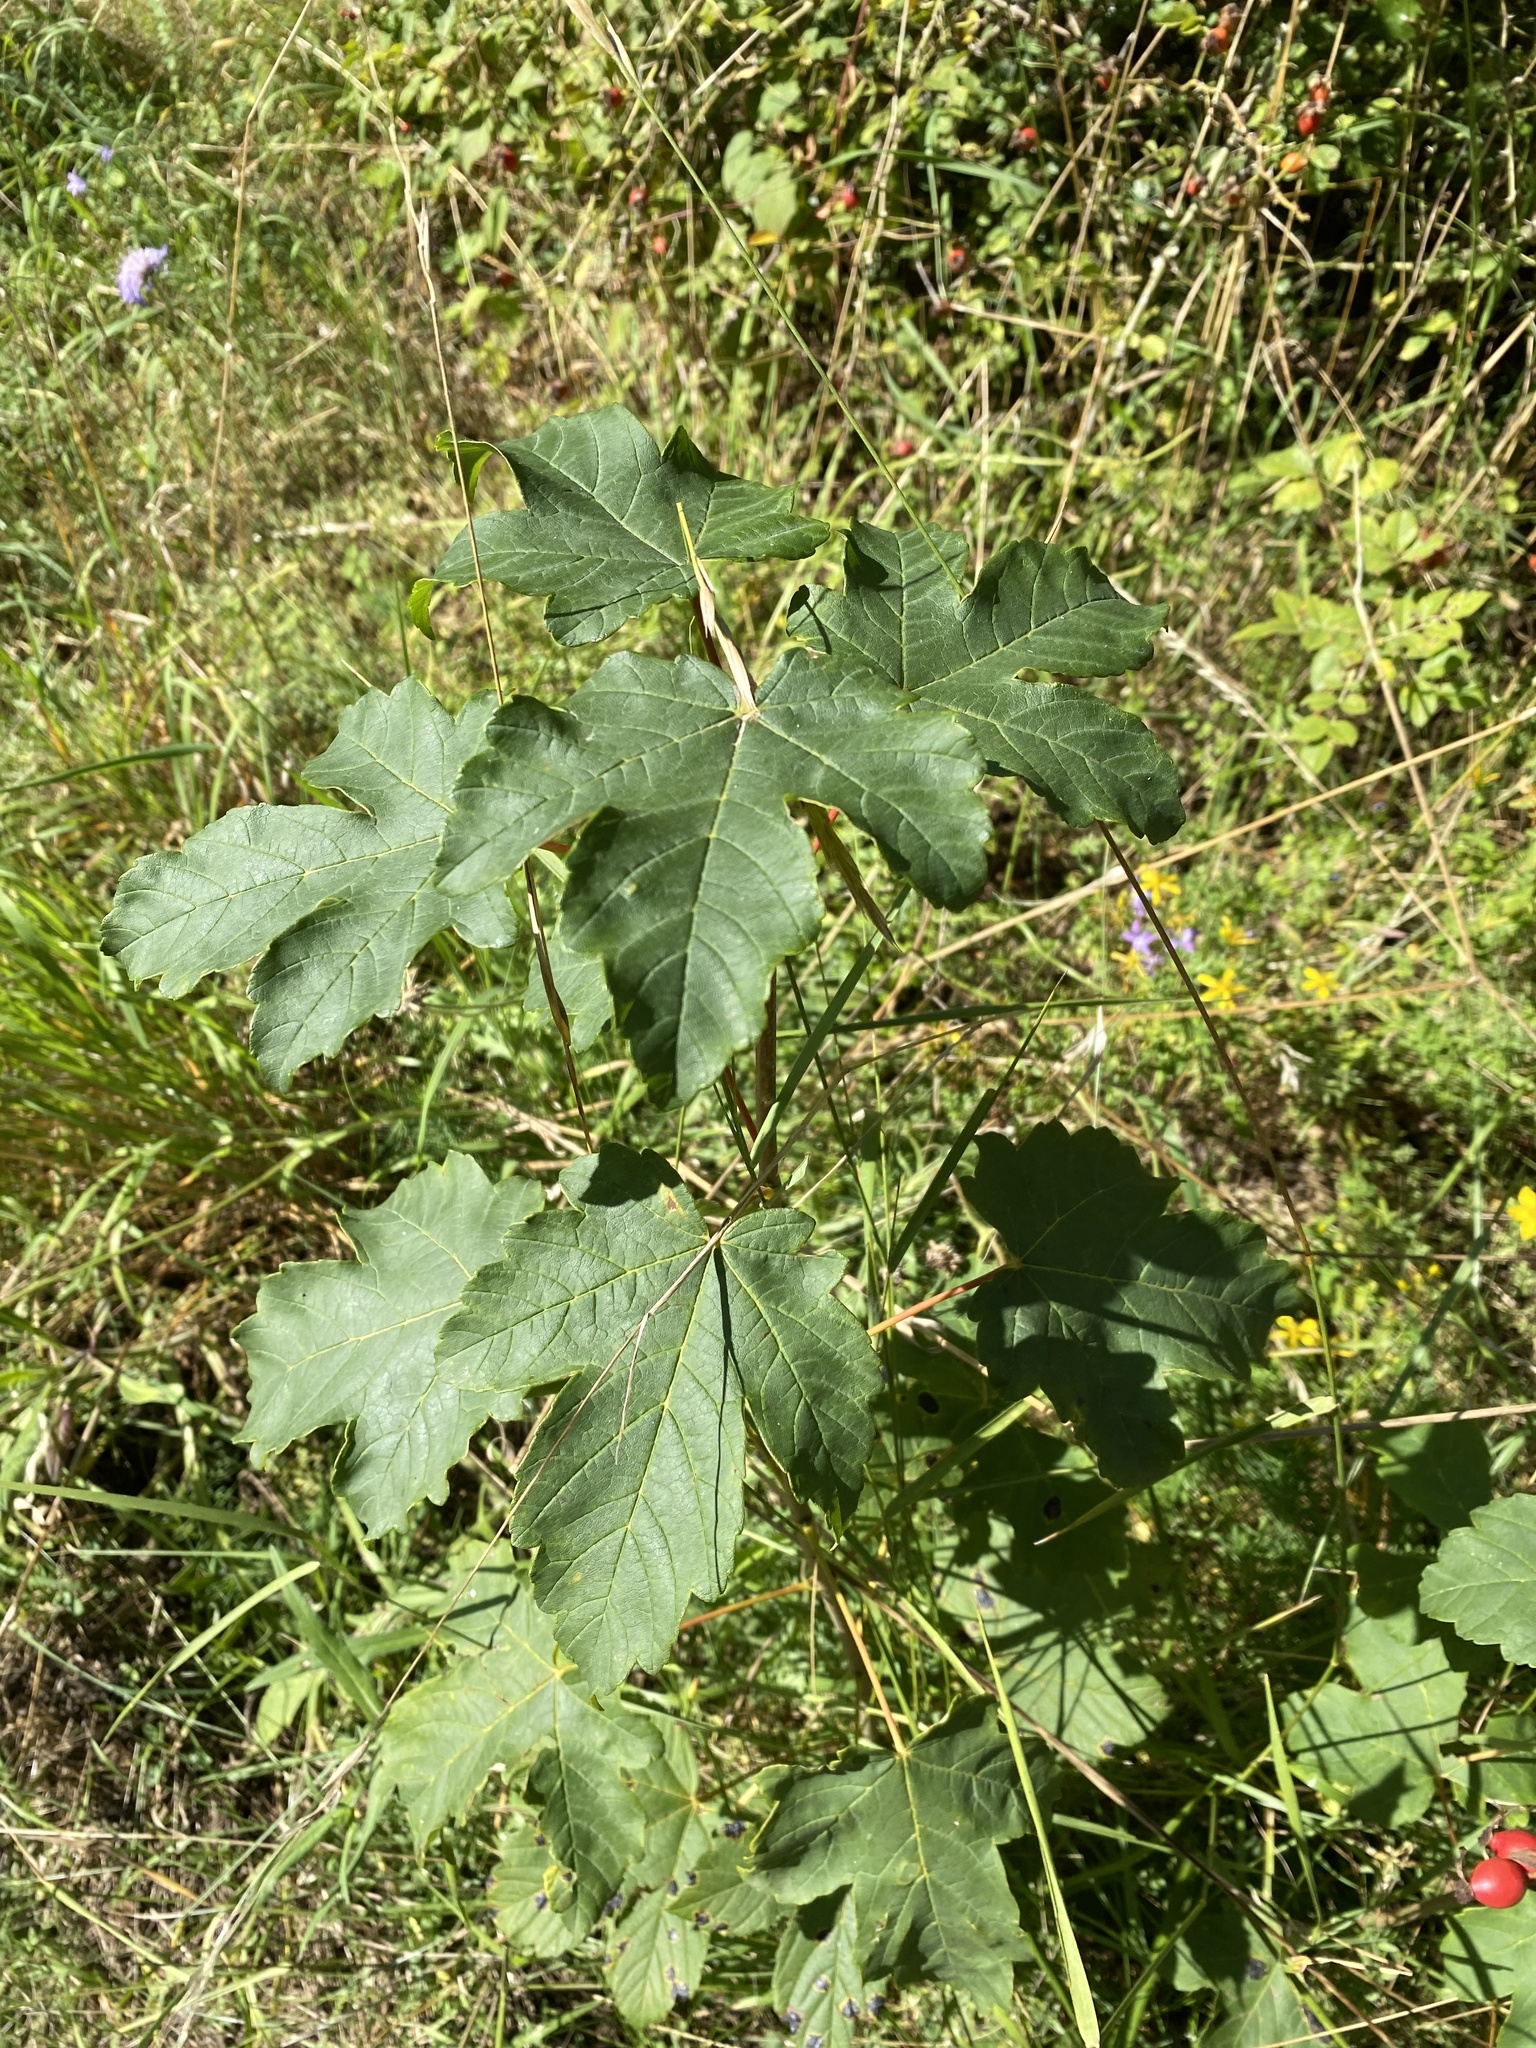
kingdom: Plantae
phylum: Tracheophyta
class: Magnoliopsida
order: Sapindales
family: Sapindaceae
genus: Acer
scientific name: Acer pseudoplatanus
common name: Sycamore
